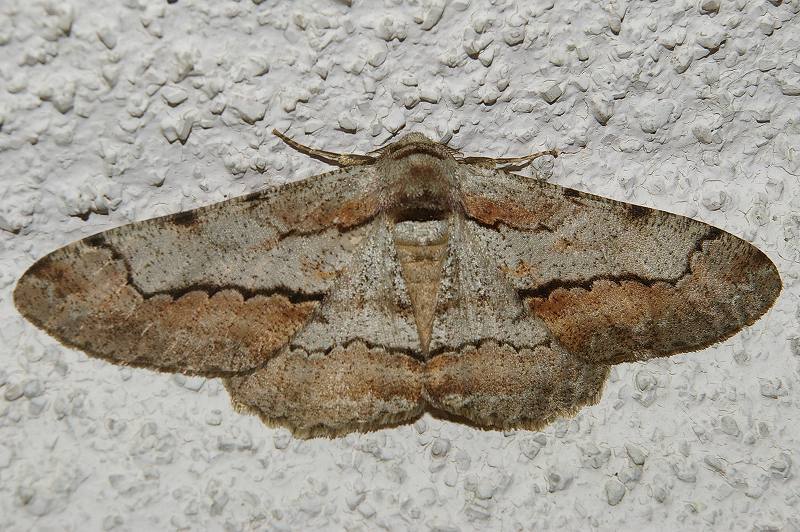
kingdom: Animalia
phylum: Arthropoda
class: Insecta
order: Lepidoptera
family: Geometridae
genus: Phthonosema
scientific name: Phthonosema tendinosaria
